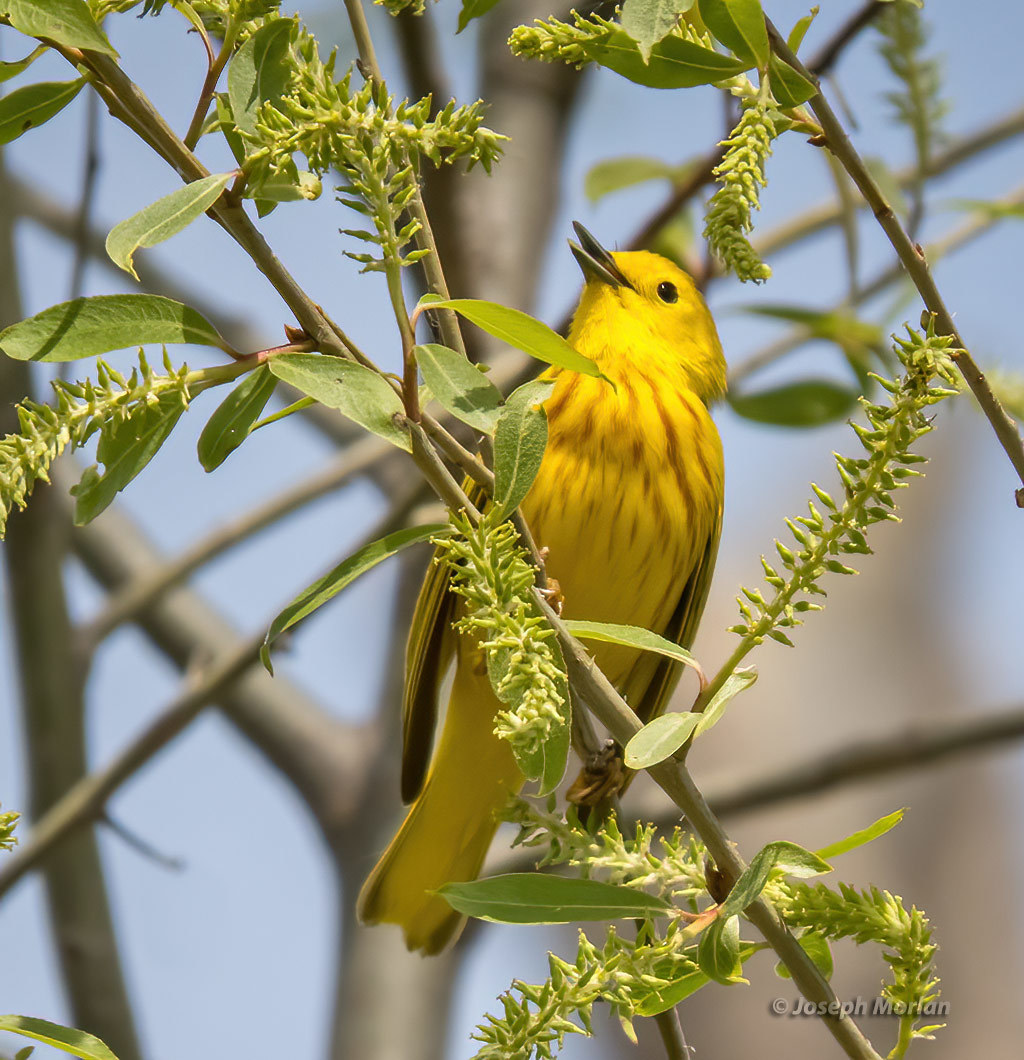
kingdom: Animalia
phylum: Chordata
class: Aves
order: Passeriformes
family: Parulidae
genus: Setophaga
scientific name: Setophaga petechia
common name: Yellow warbler
